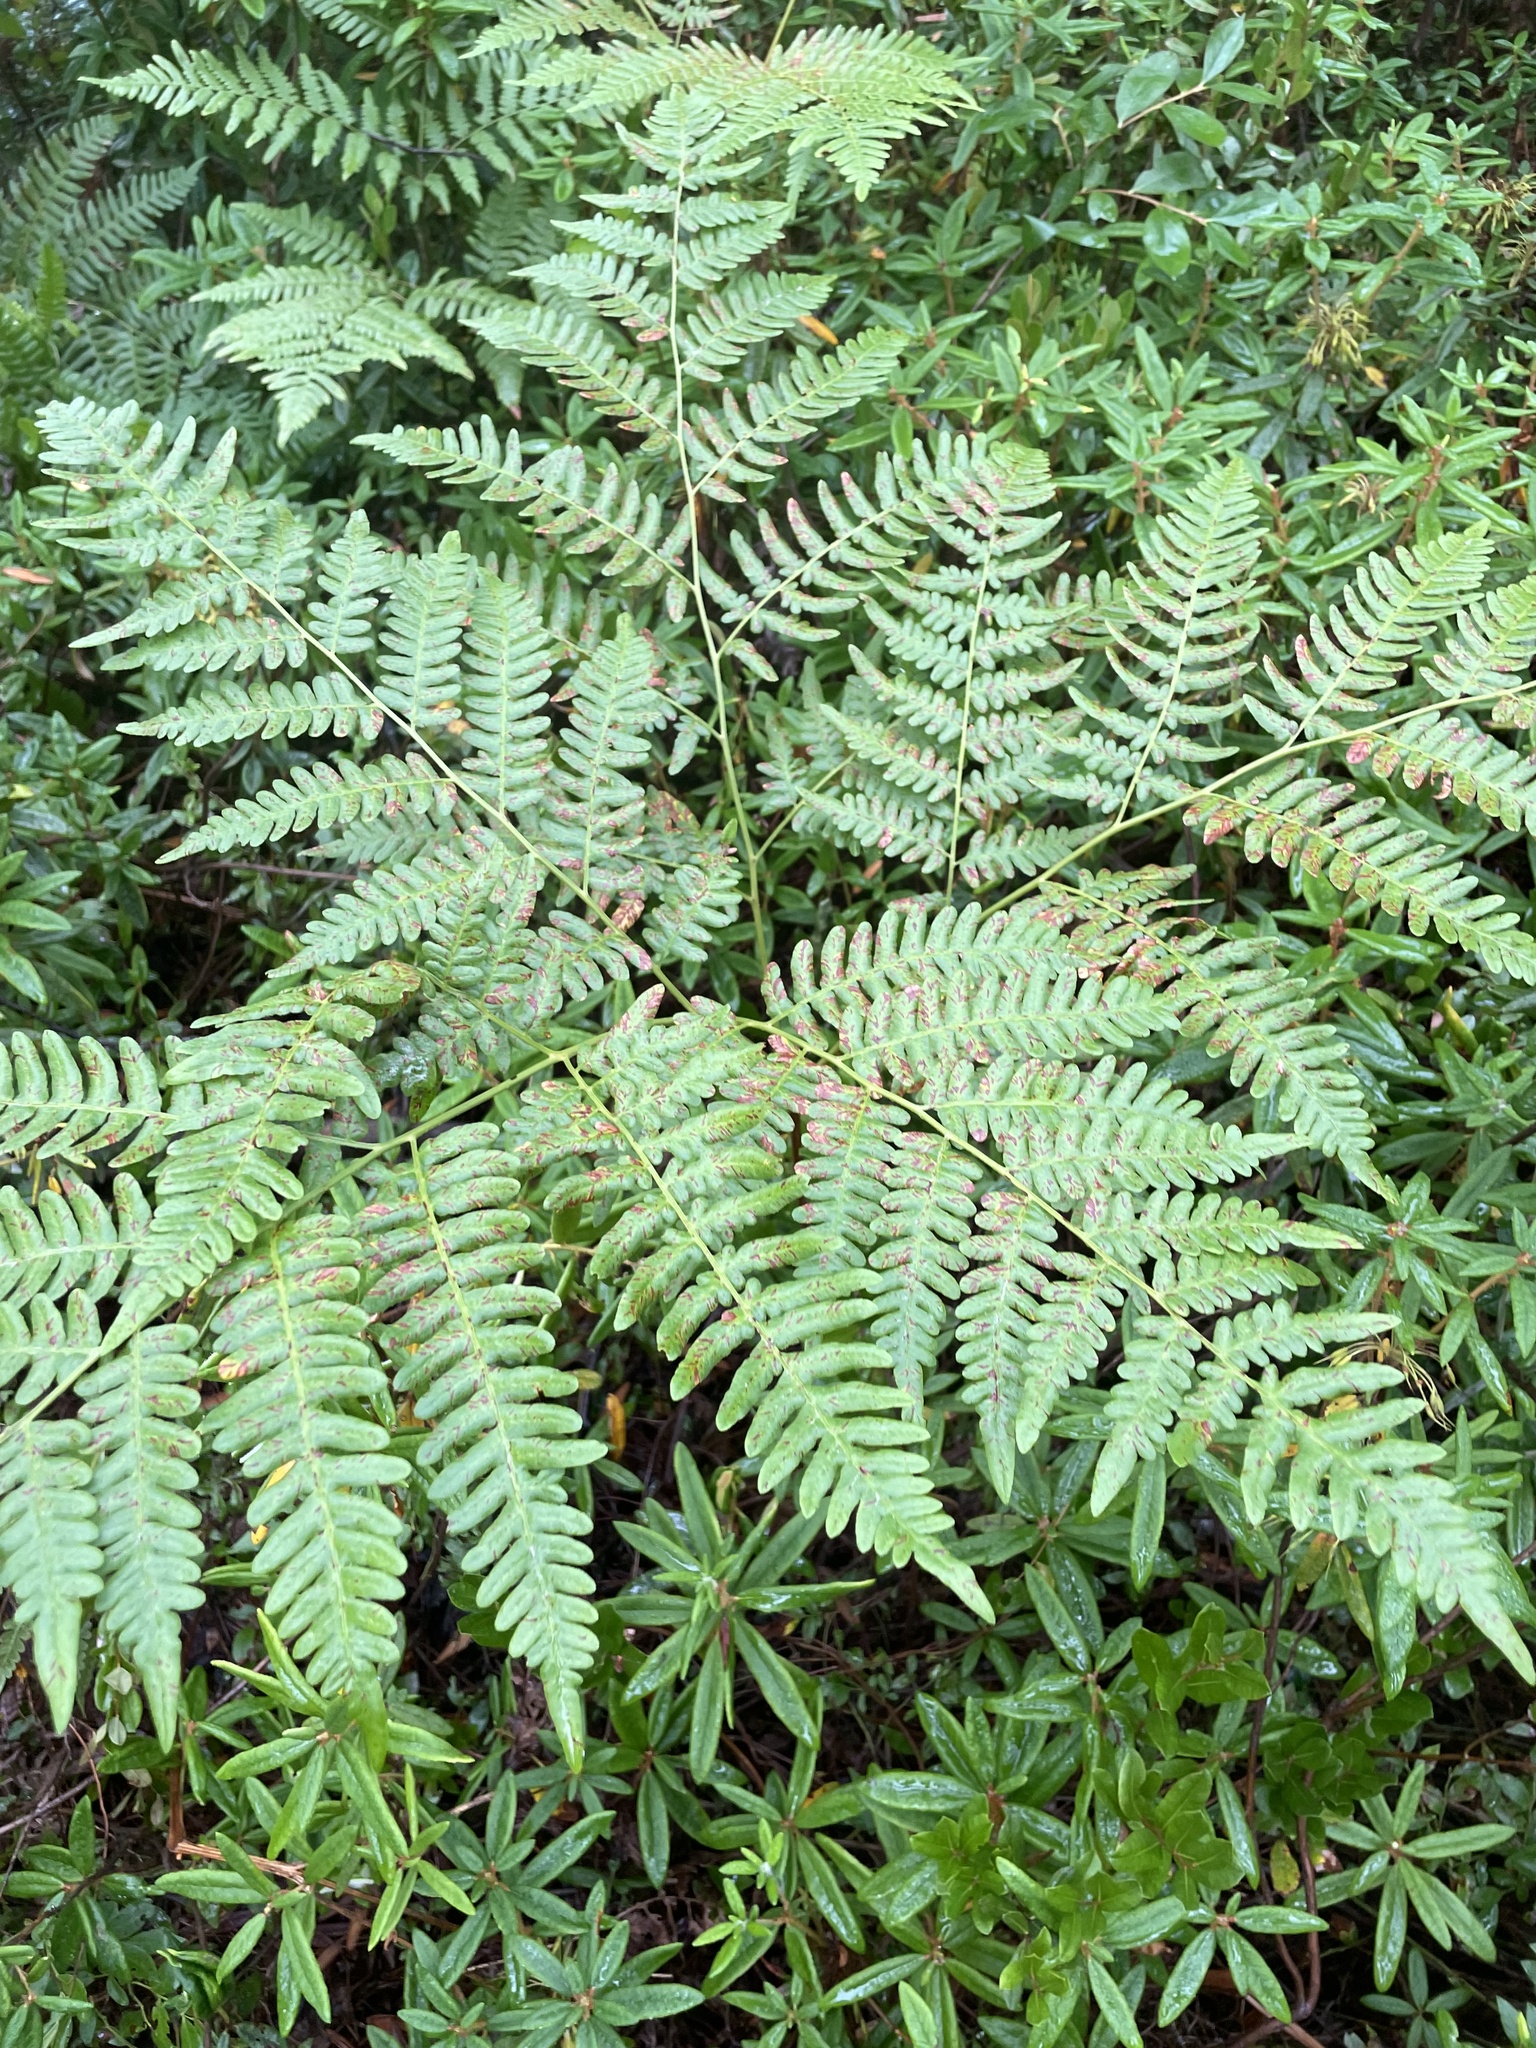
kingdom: Plantae
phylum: Tracheophyta
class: Polypodiopsida
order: Polypodiales
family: Dennstaedtiaceae
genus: Pteridium
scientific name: Pteridium aquilinum
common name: Bracken
